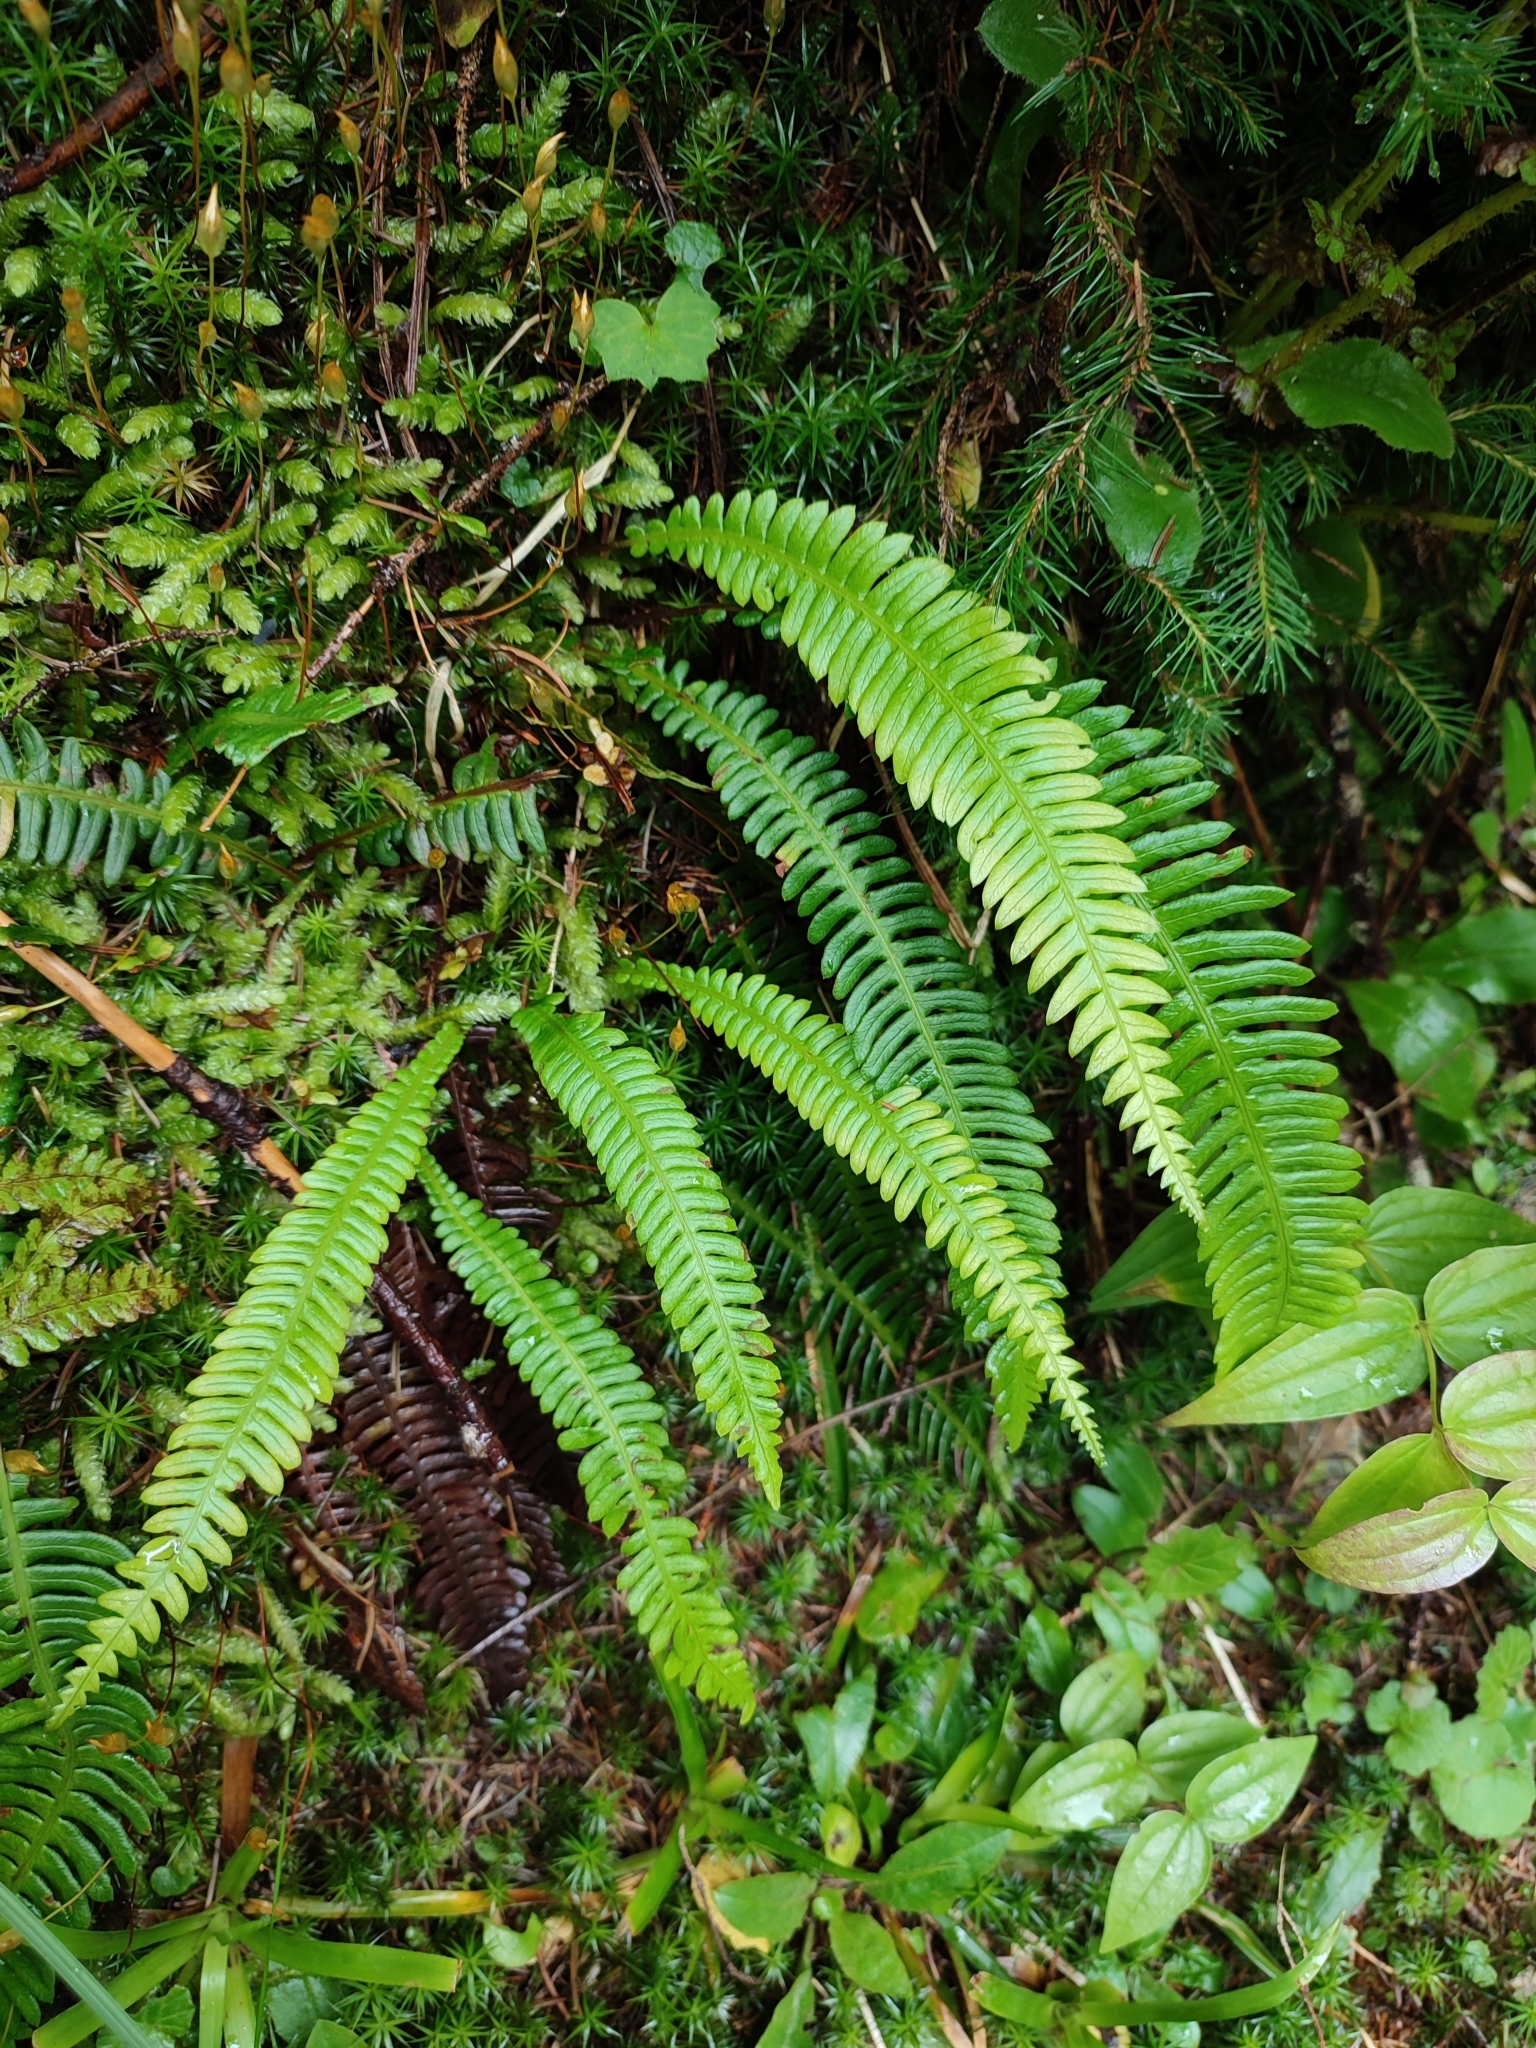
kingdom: Plantae
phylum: Tracheophyta
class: Polypodiopsida
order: Polypodiales
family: Blechnaceae
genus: Struthiopteris
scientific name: Struthiopteris spicant
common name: Deer fern
